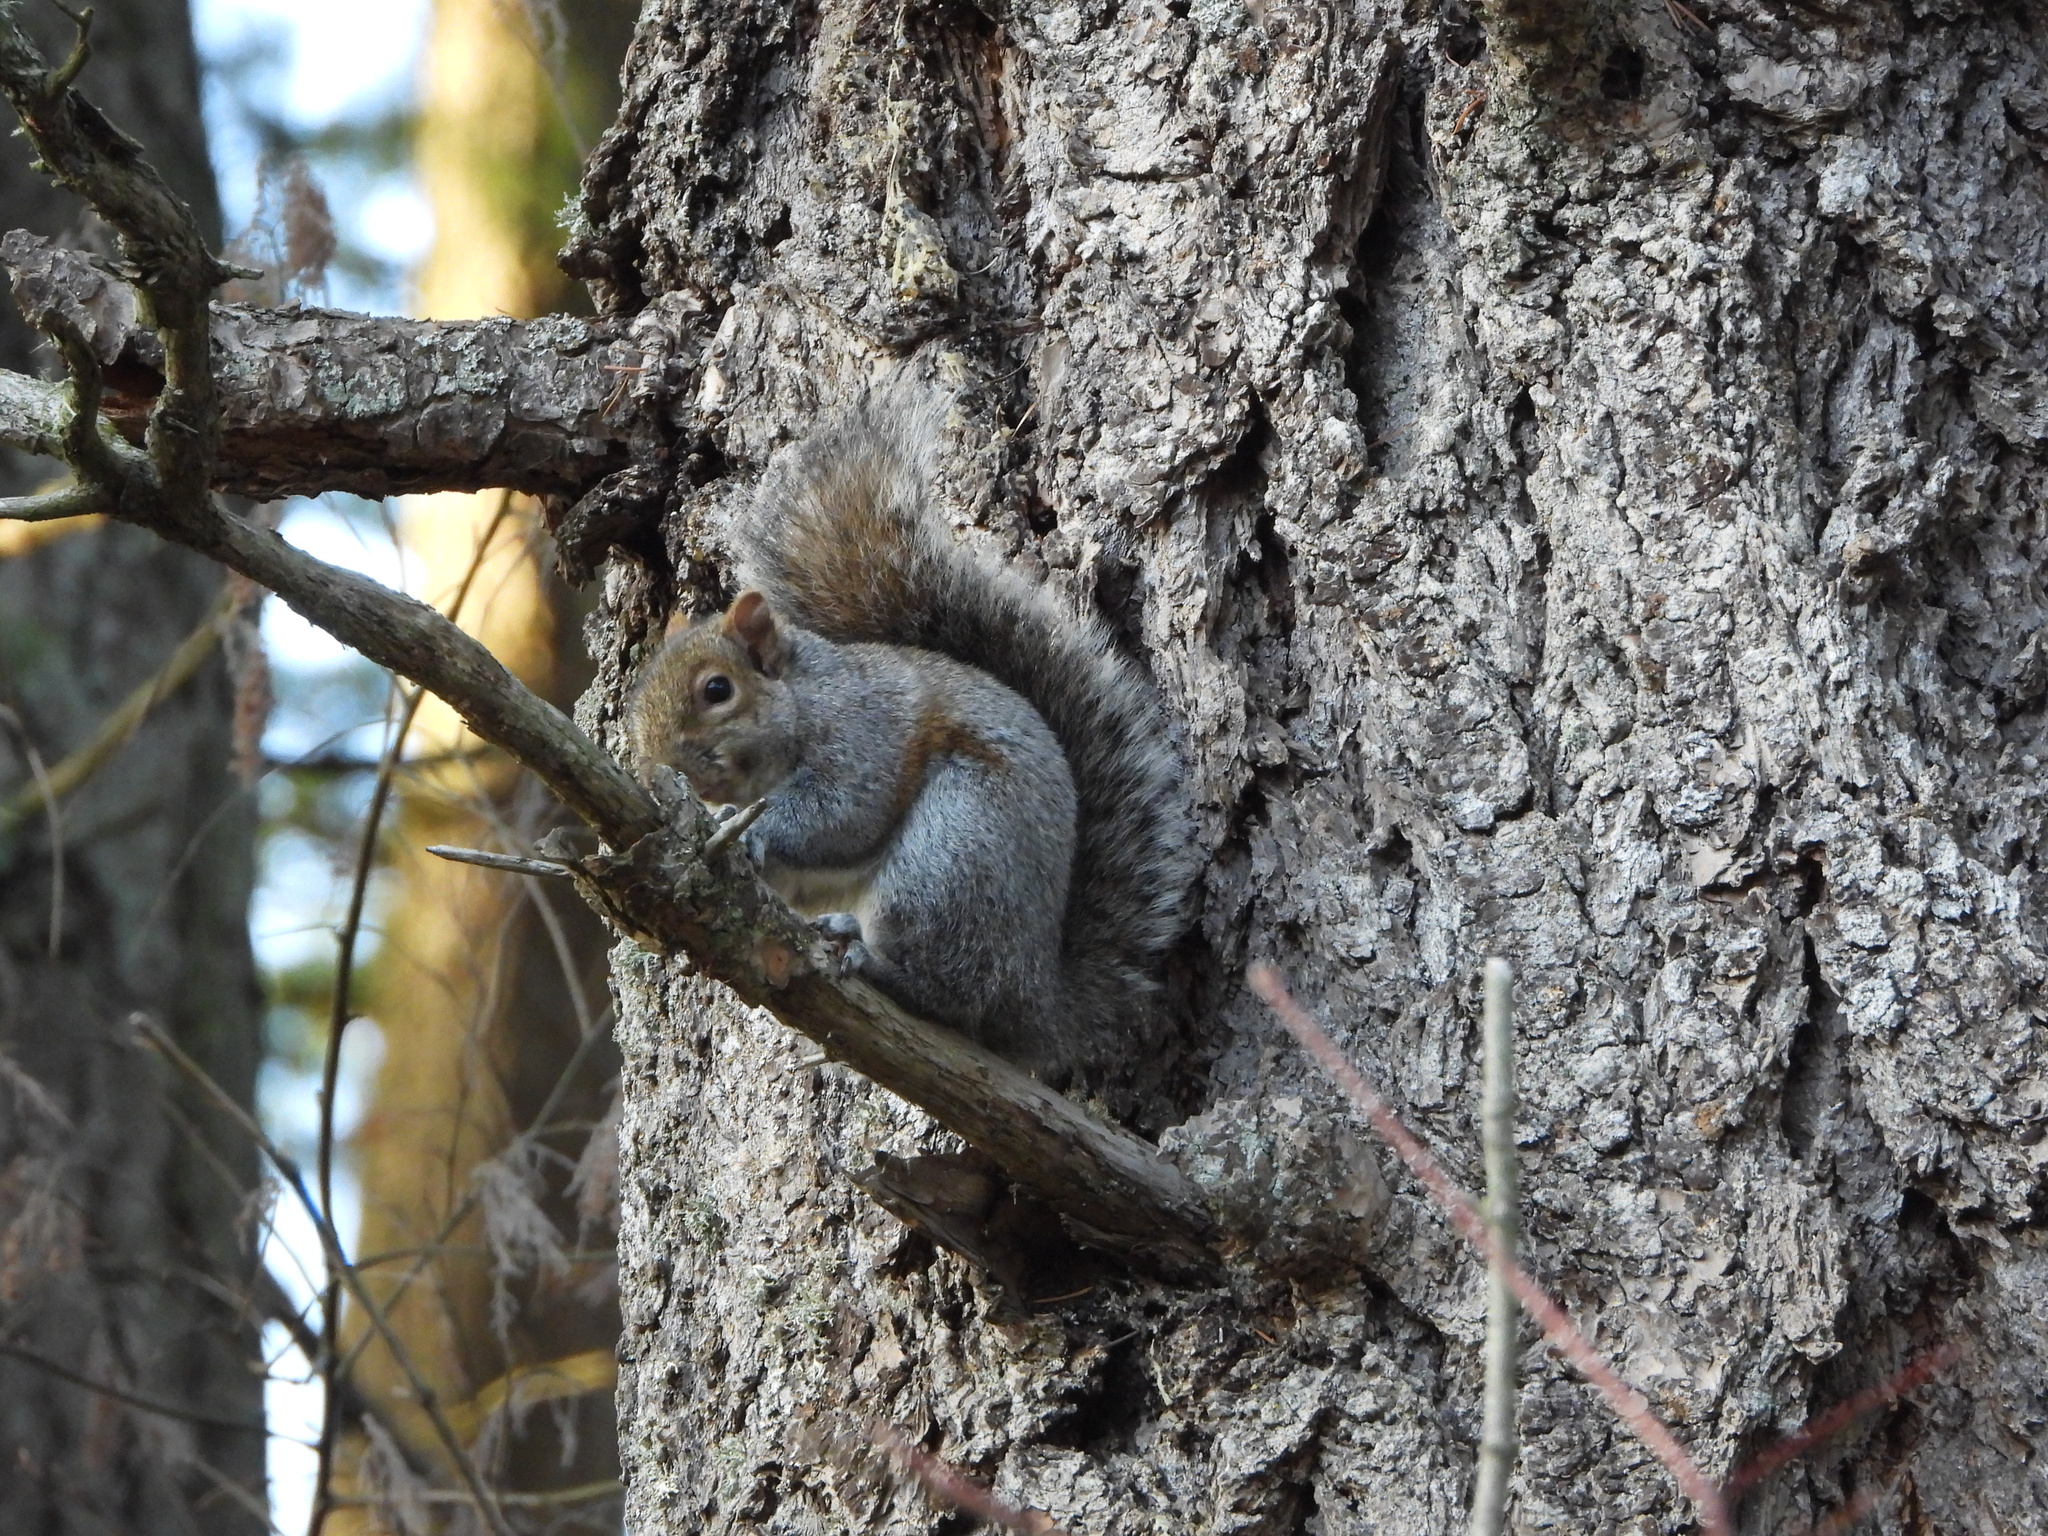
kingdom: Animalia
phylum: Chordata
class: Mammalia
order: Rodentia
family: Sciuridae
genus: Sciurus
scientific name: Sciurus carolinensis
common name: Eastern gray squirrel
